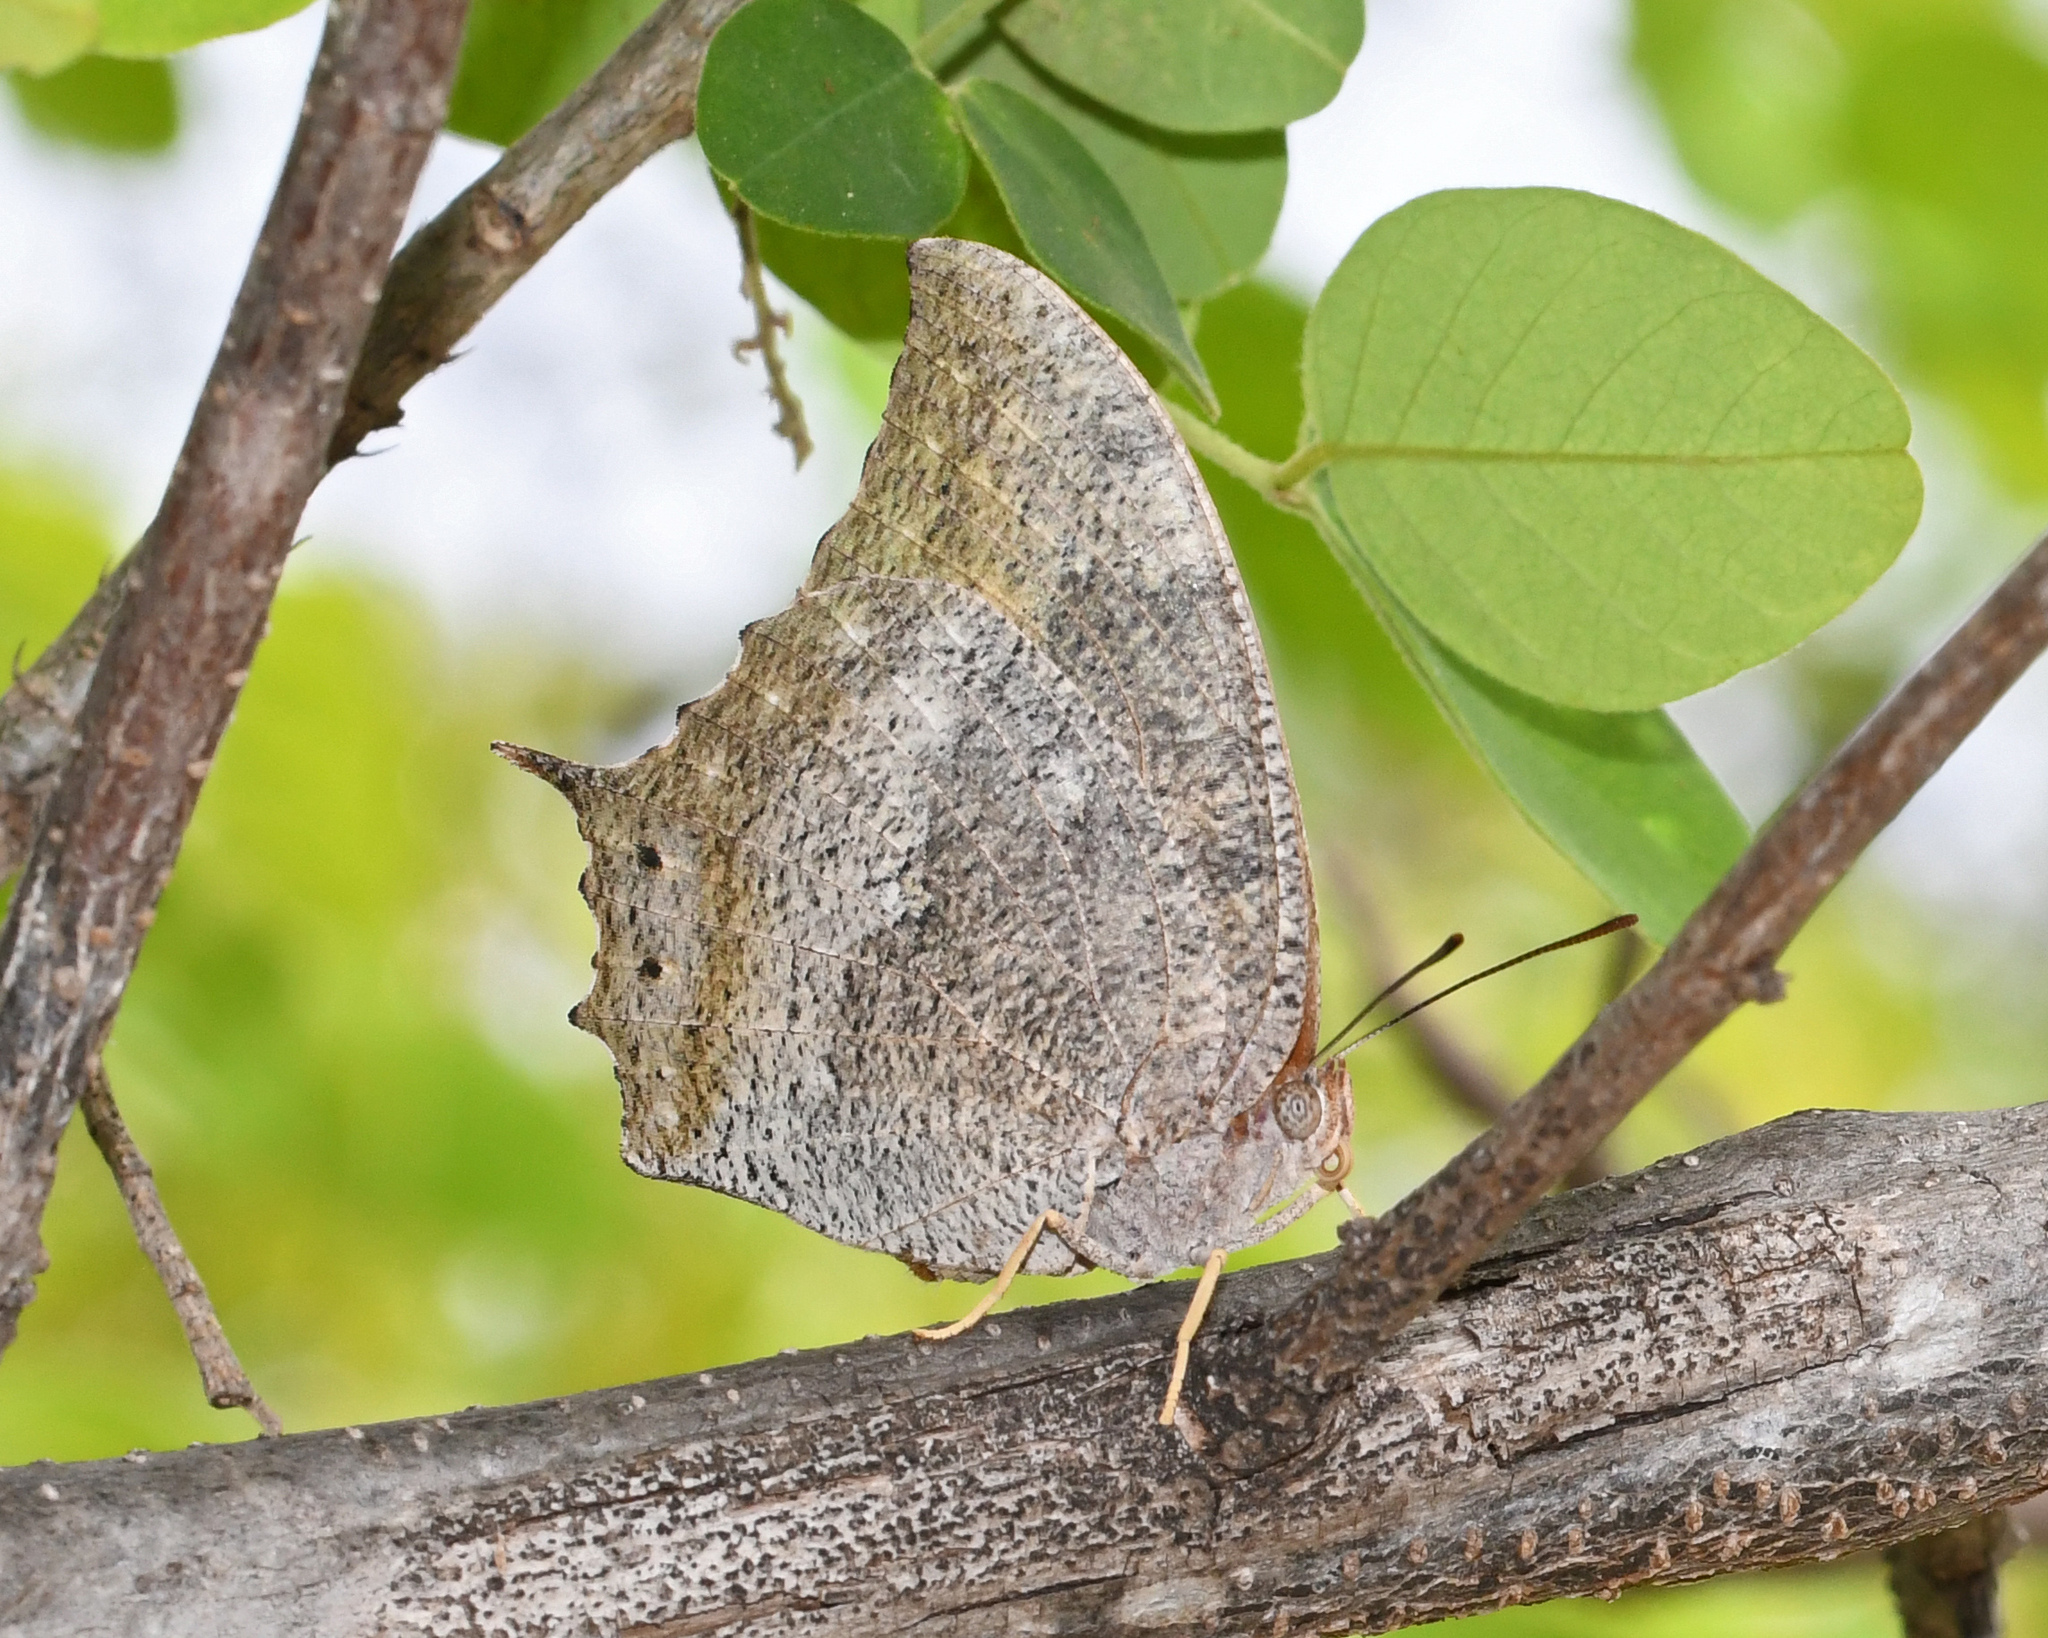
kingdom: Animalia
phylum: Arthropoda
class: Insecta
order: Lepidoptera
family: Nymphalidae
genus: Anaea
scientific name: Anaea troglodyta
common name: Florida leafwing
